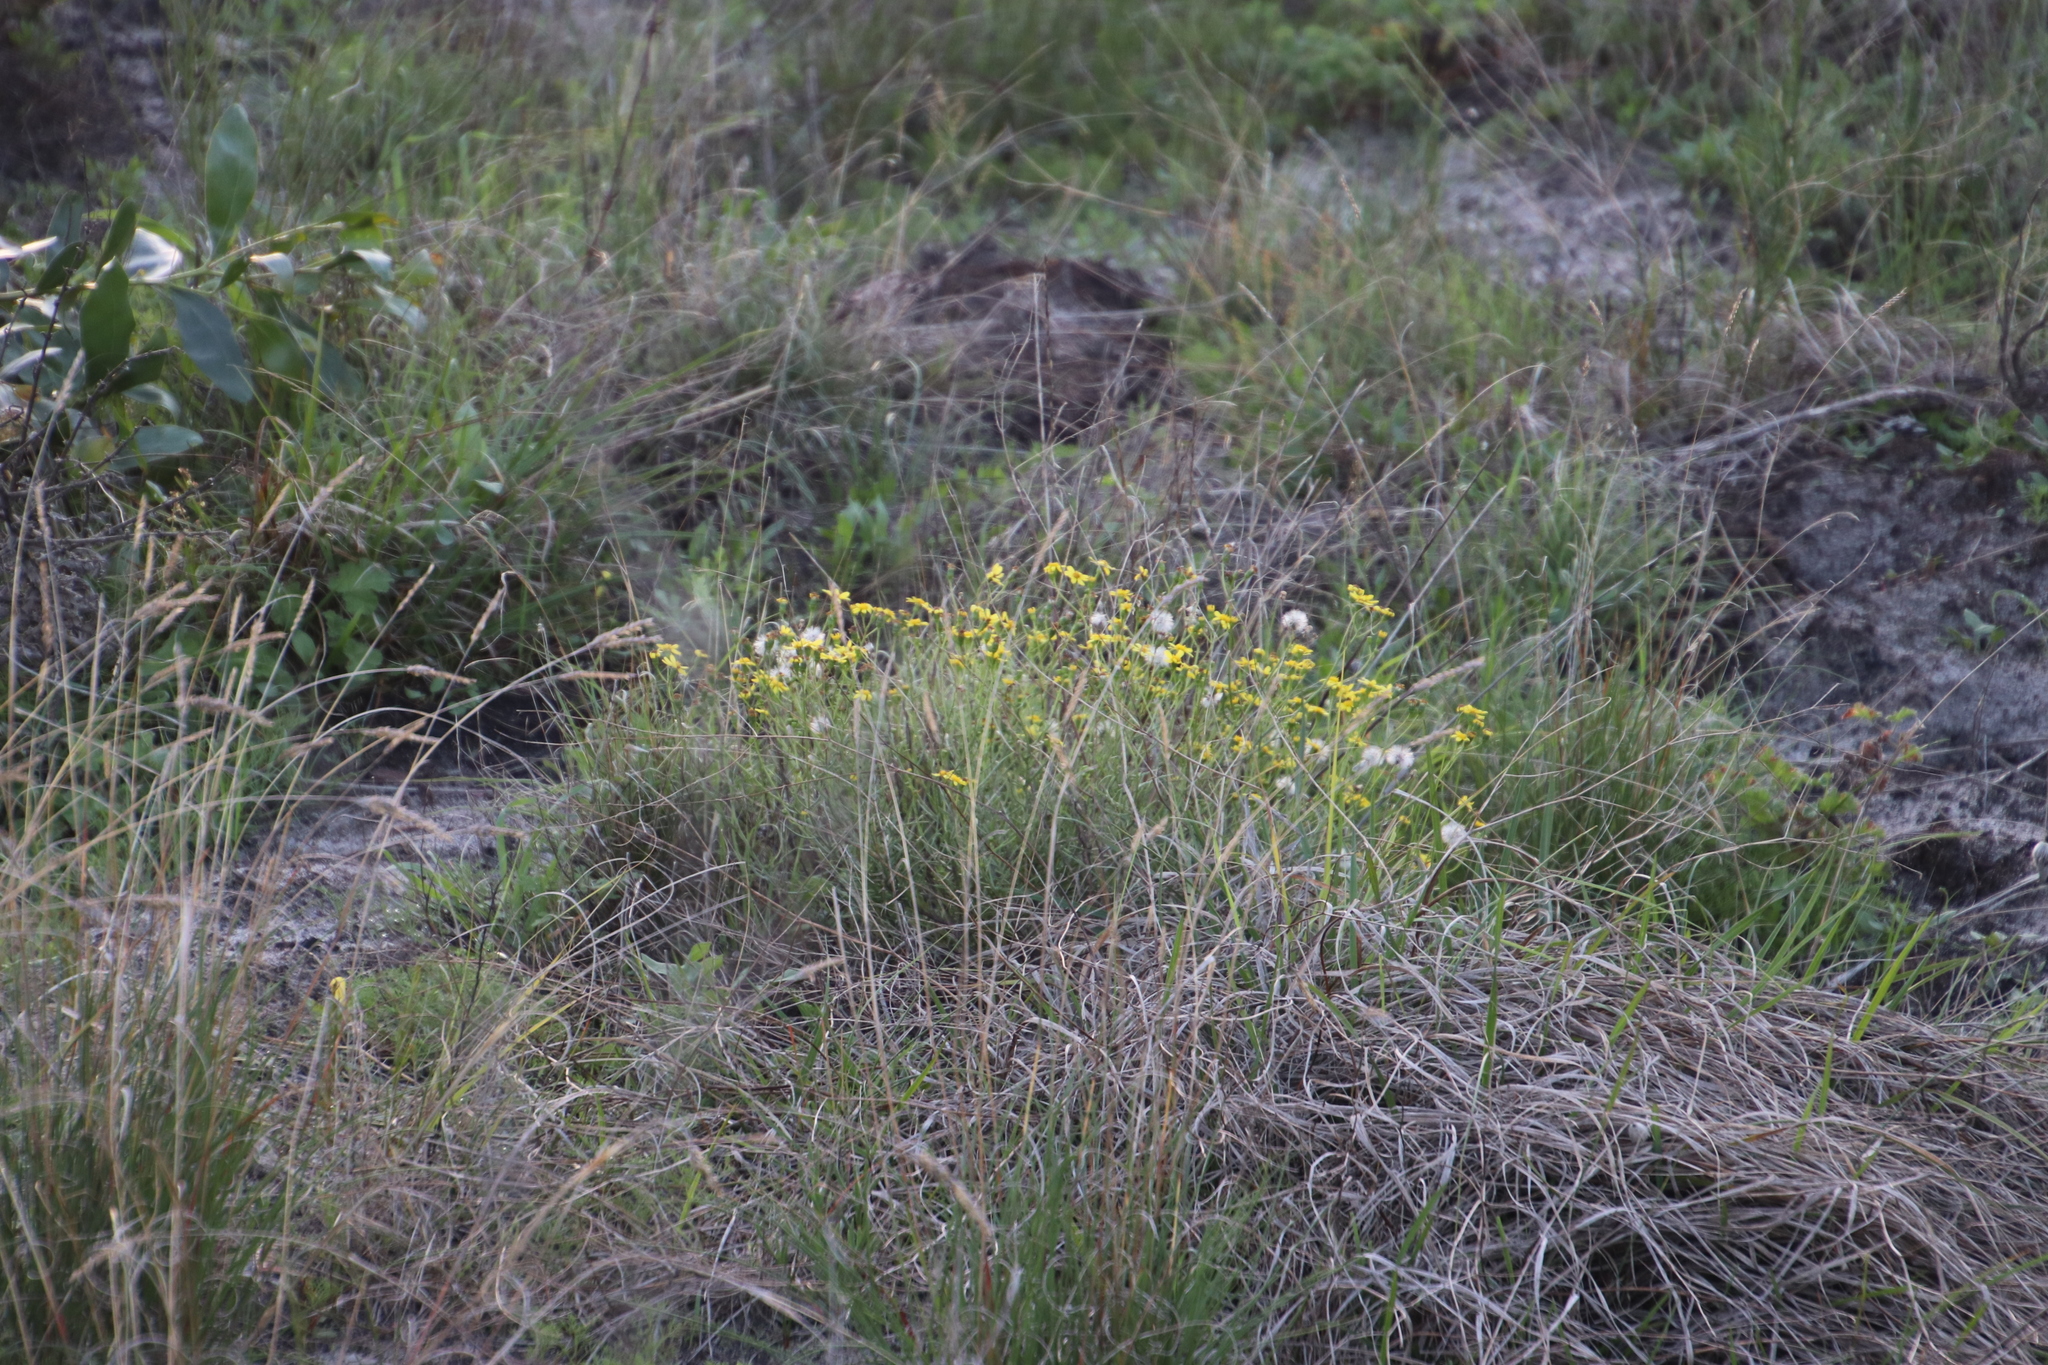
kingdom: Plantae
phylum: Tracheophyta
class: Magnoliopsida
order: Asterales
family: Asteraceae
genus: Senecio
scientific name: Senecio burchellii
